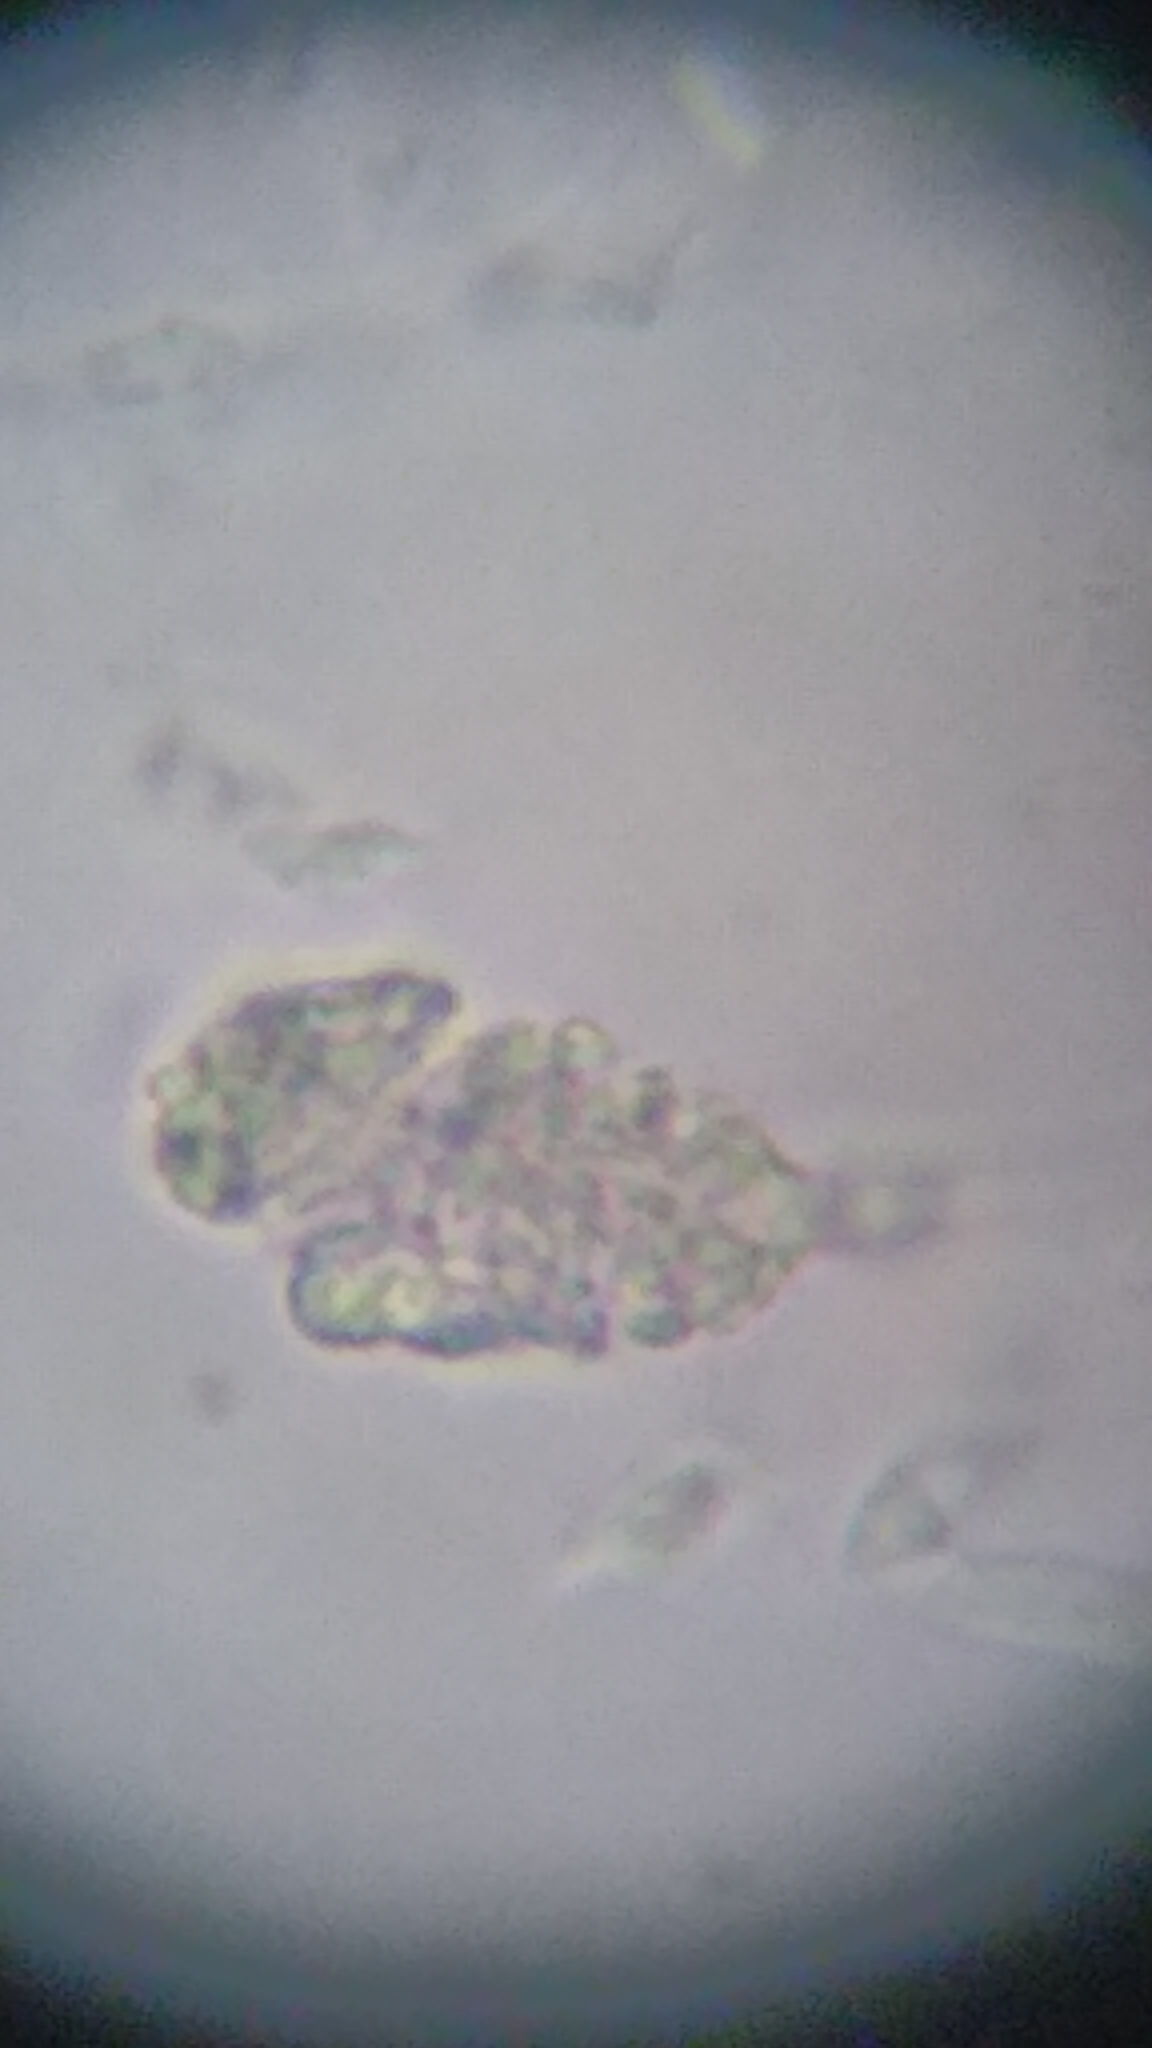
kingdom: Fungi
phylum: Basidiomycota
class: Agaricomycetes
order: Auriculariales
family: Hyaloriaceae
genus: Myxarium
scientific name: Myxarium nucleatum
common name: Crystal brain fungus
